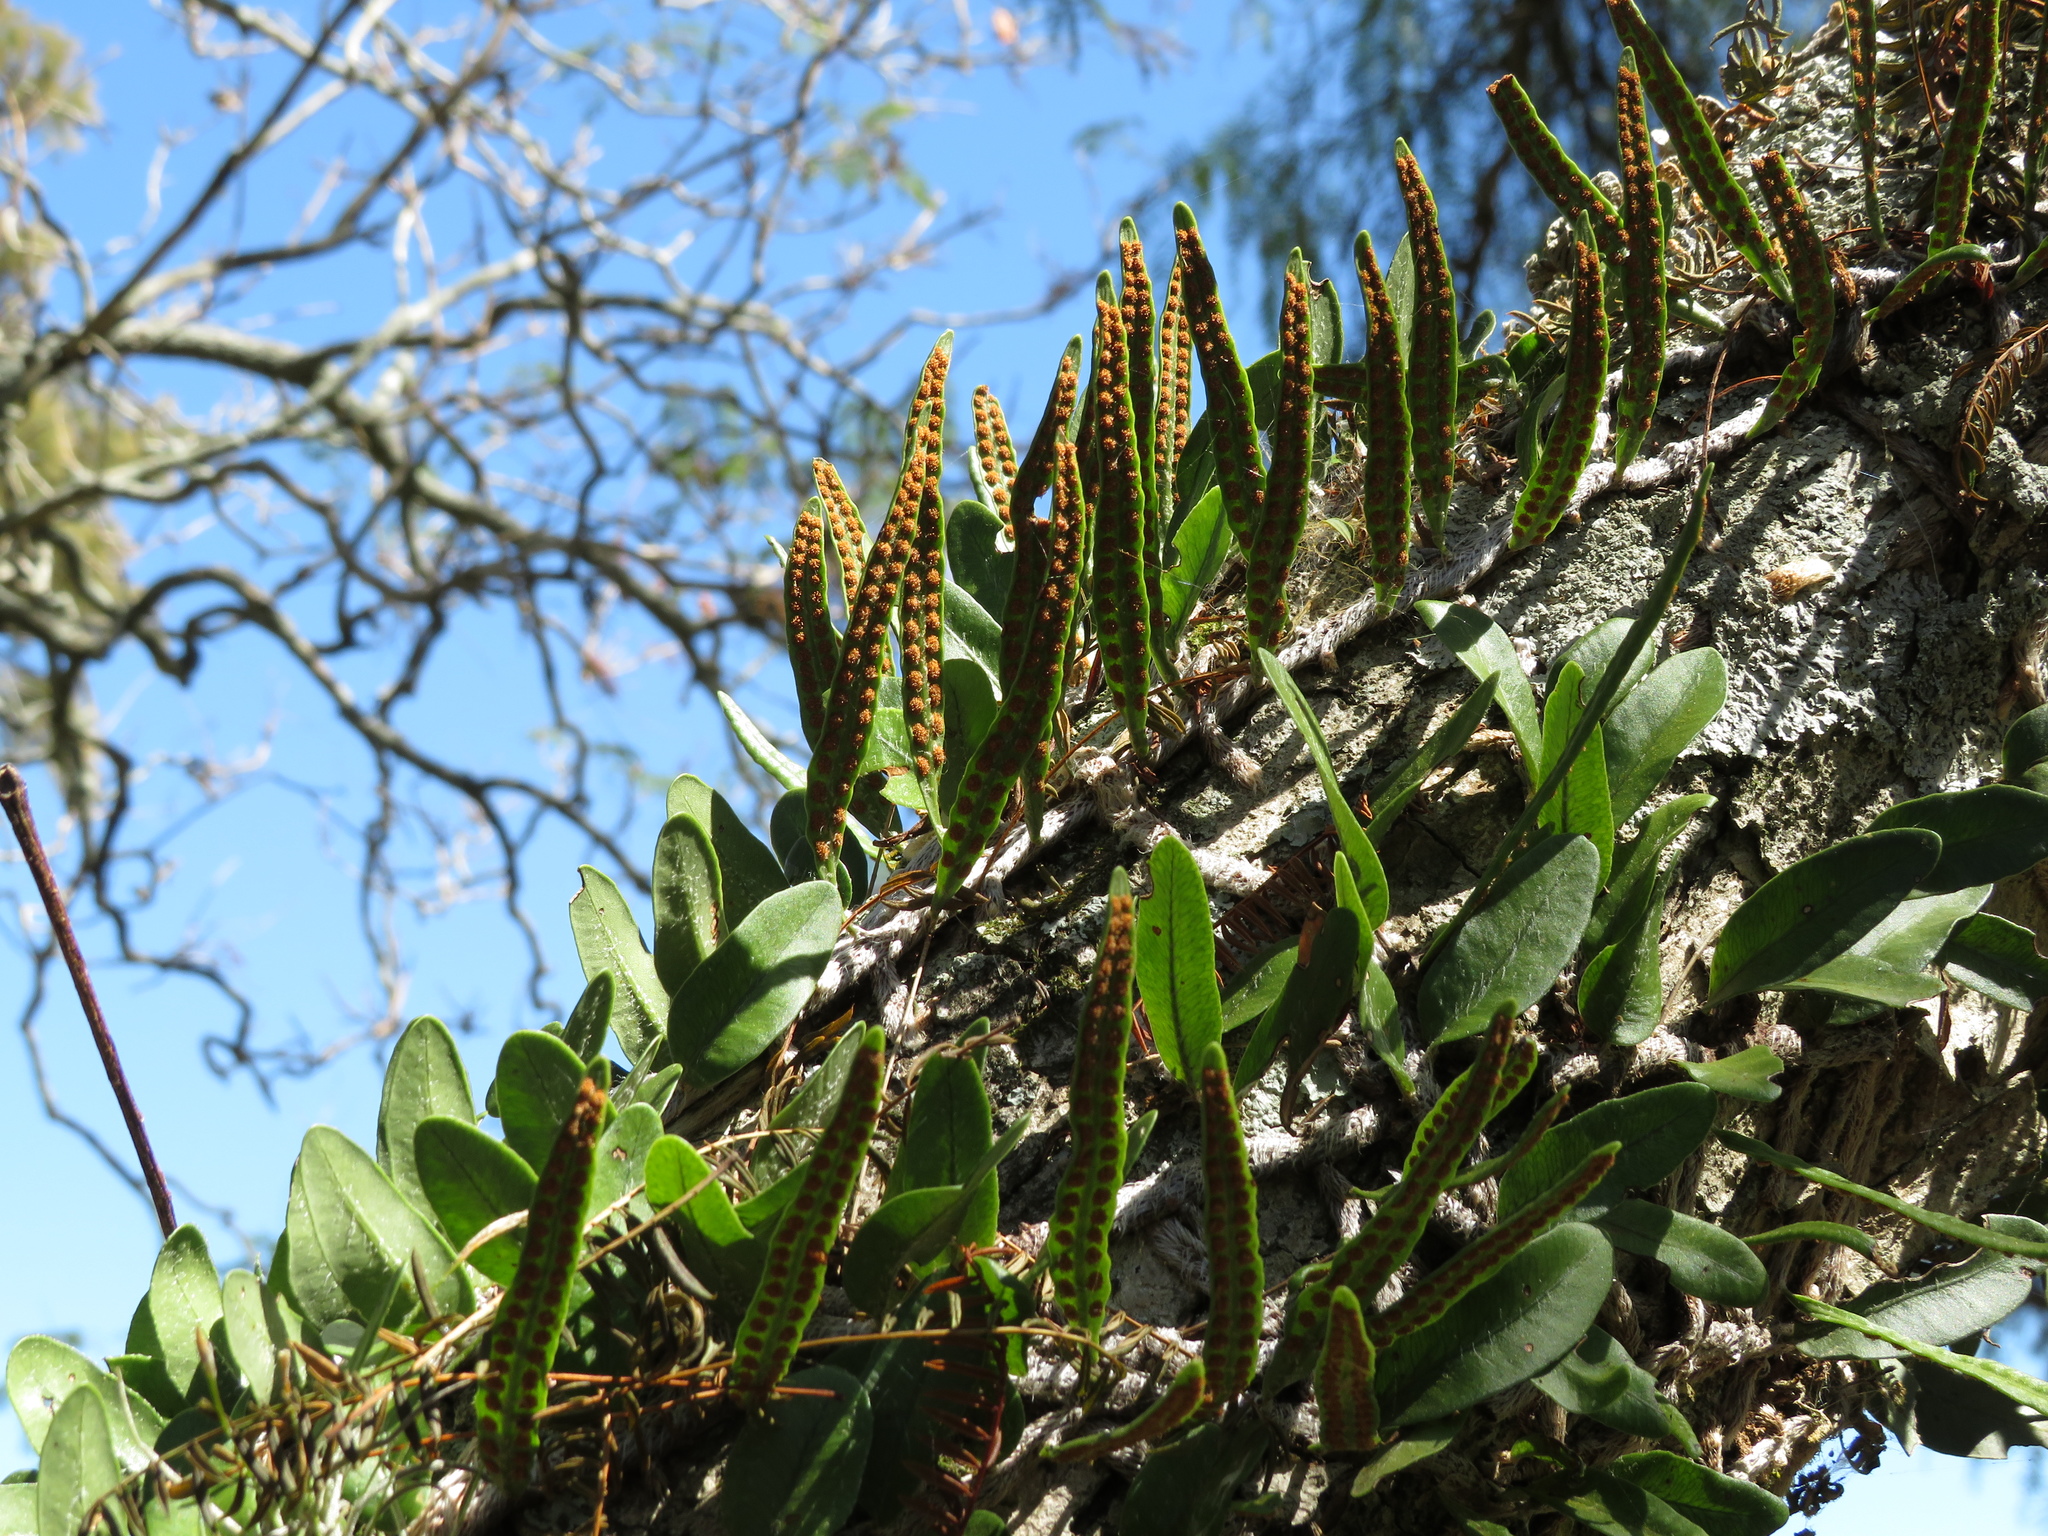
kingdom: Plantae
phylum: Tracheophyta
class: Polypodiopsida
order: Polypodiales
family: Polypodiaceae
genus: Microgramma
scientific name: Microgramma mortoniana
